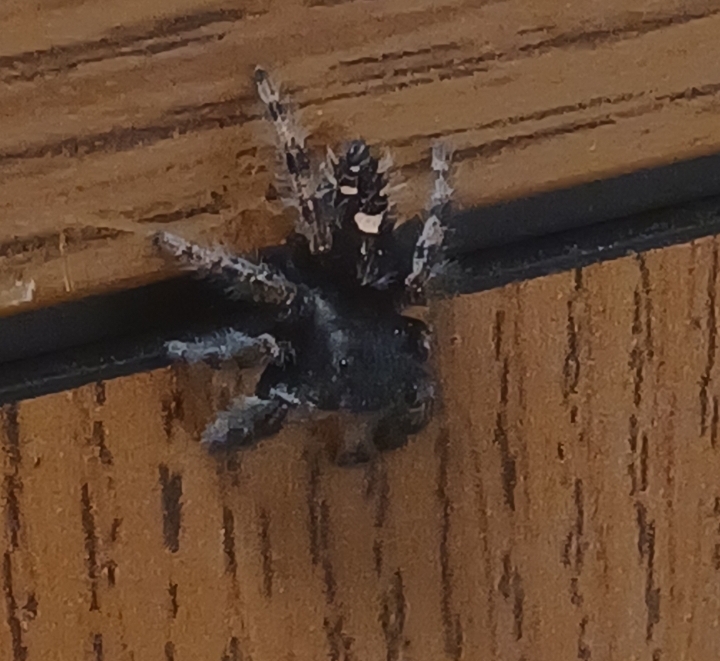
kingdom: Animalia
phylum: Arthropoda
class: Arachnida
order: Araneae
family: Salticidae
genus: Phidippus
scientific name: Phidippus audax
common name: Bold jumper
